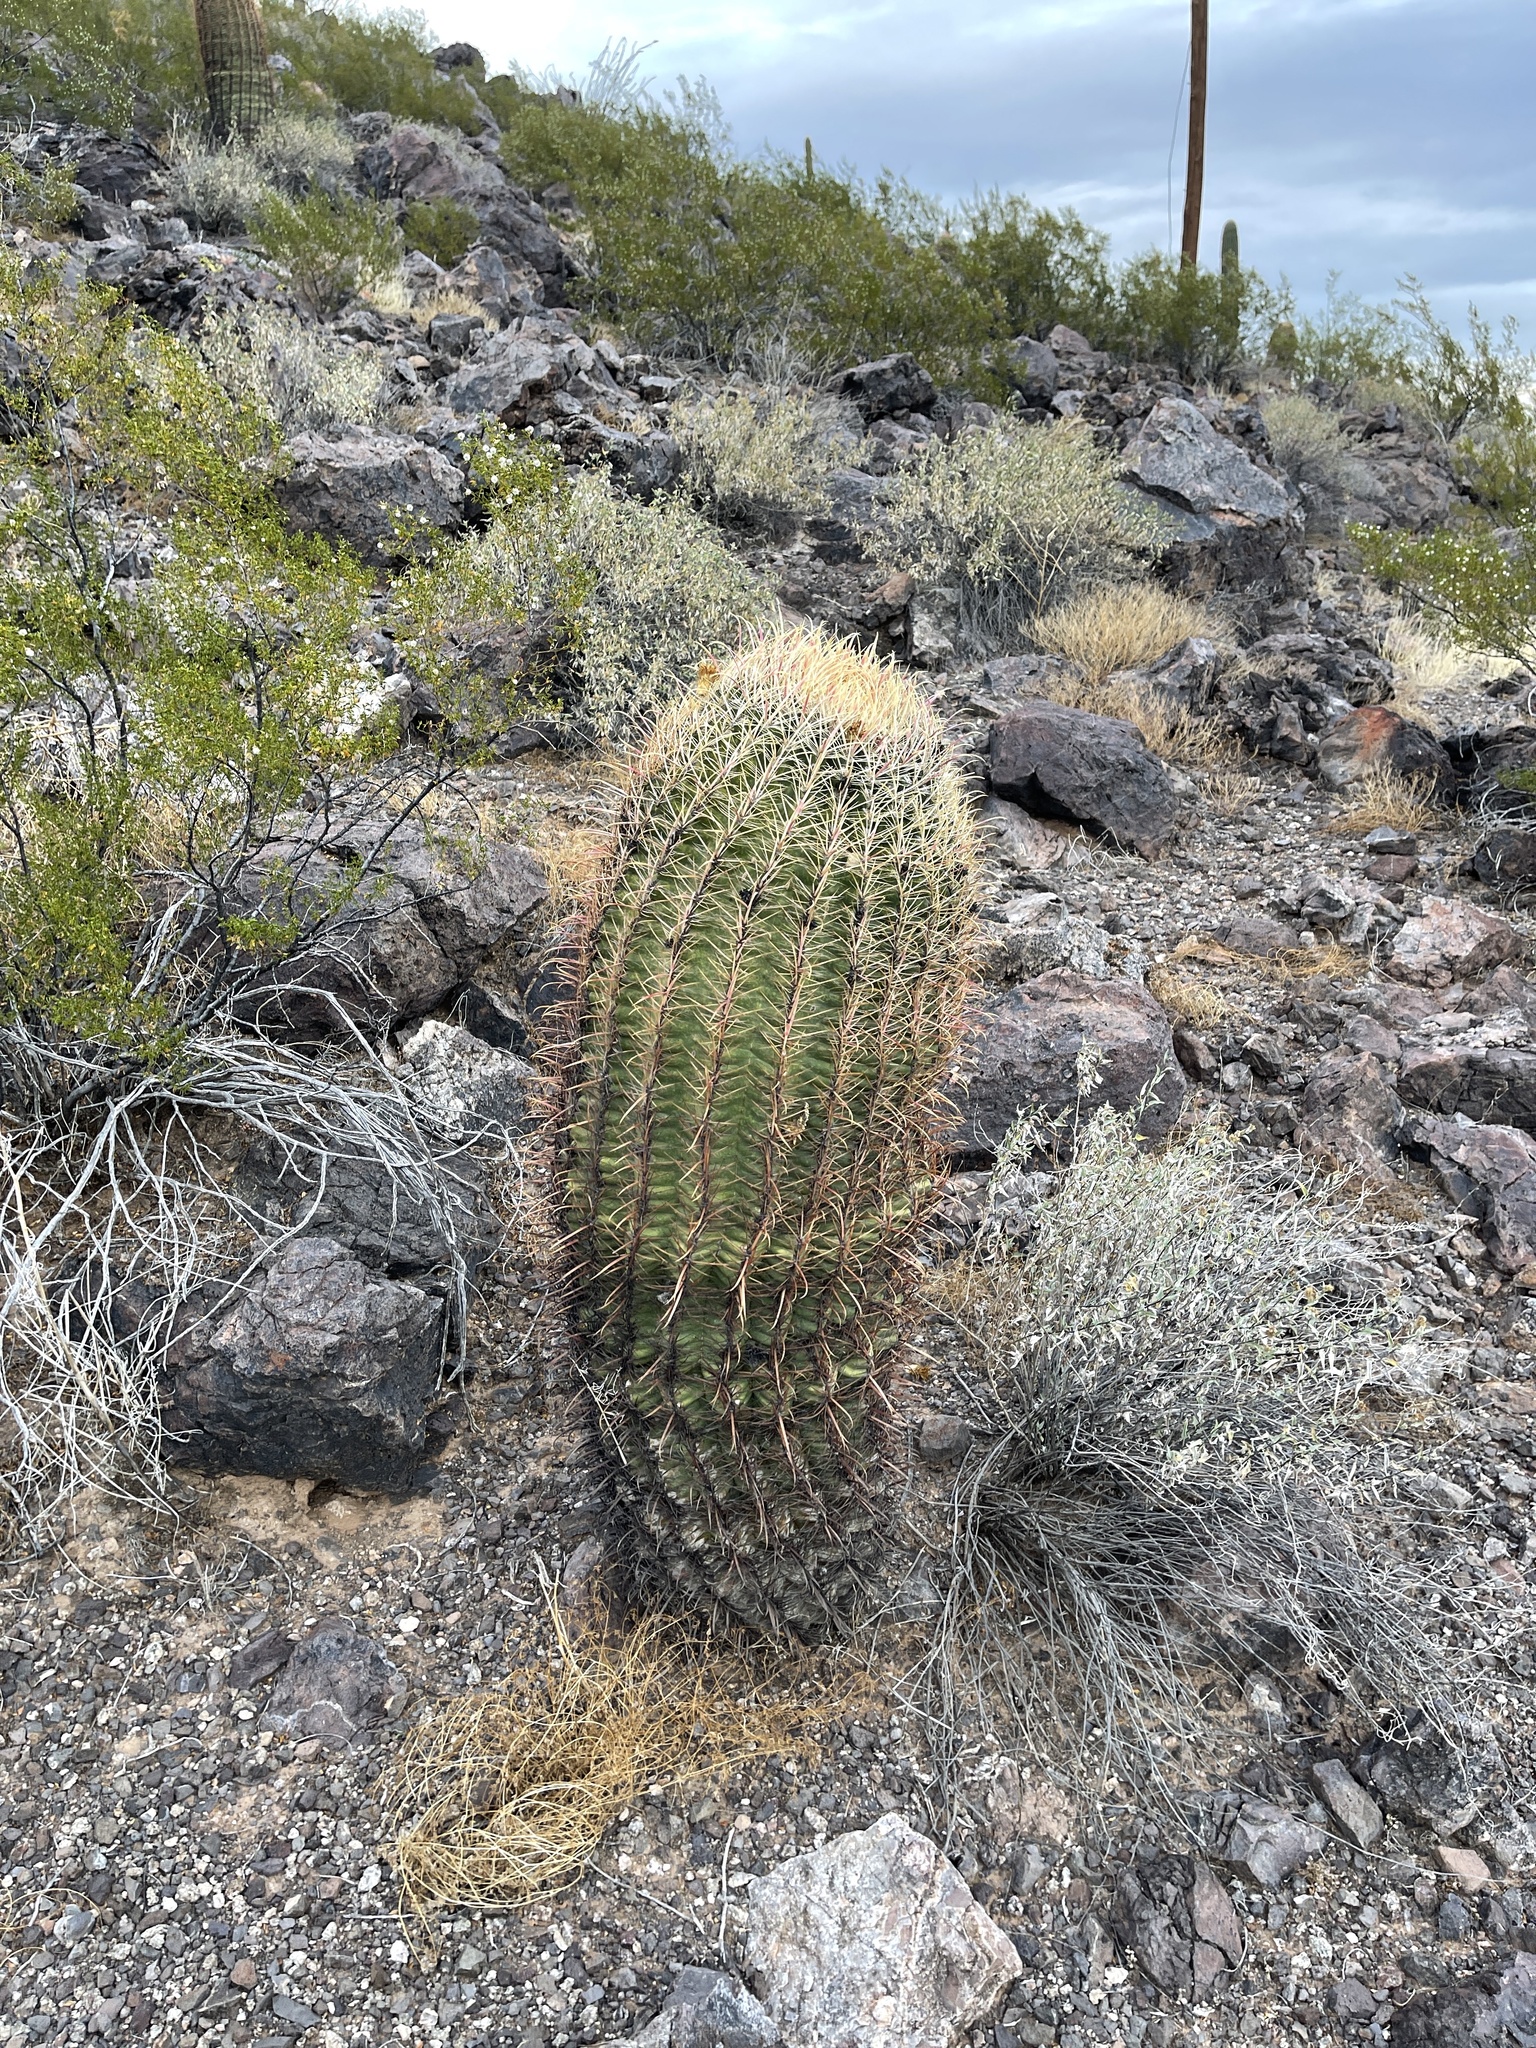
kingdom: Plantae
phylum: Tracheophyta
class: Magnoliopsida
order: Caryophyllales
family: Cactaceae
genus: Ferocactus
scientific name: Ferocactus cylindraceus
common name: California barrel cactus
